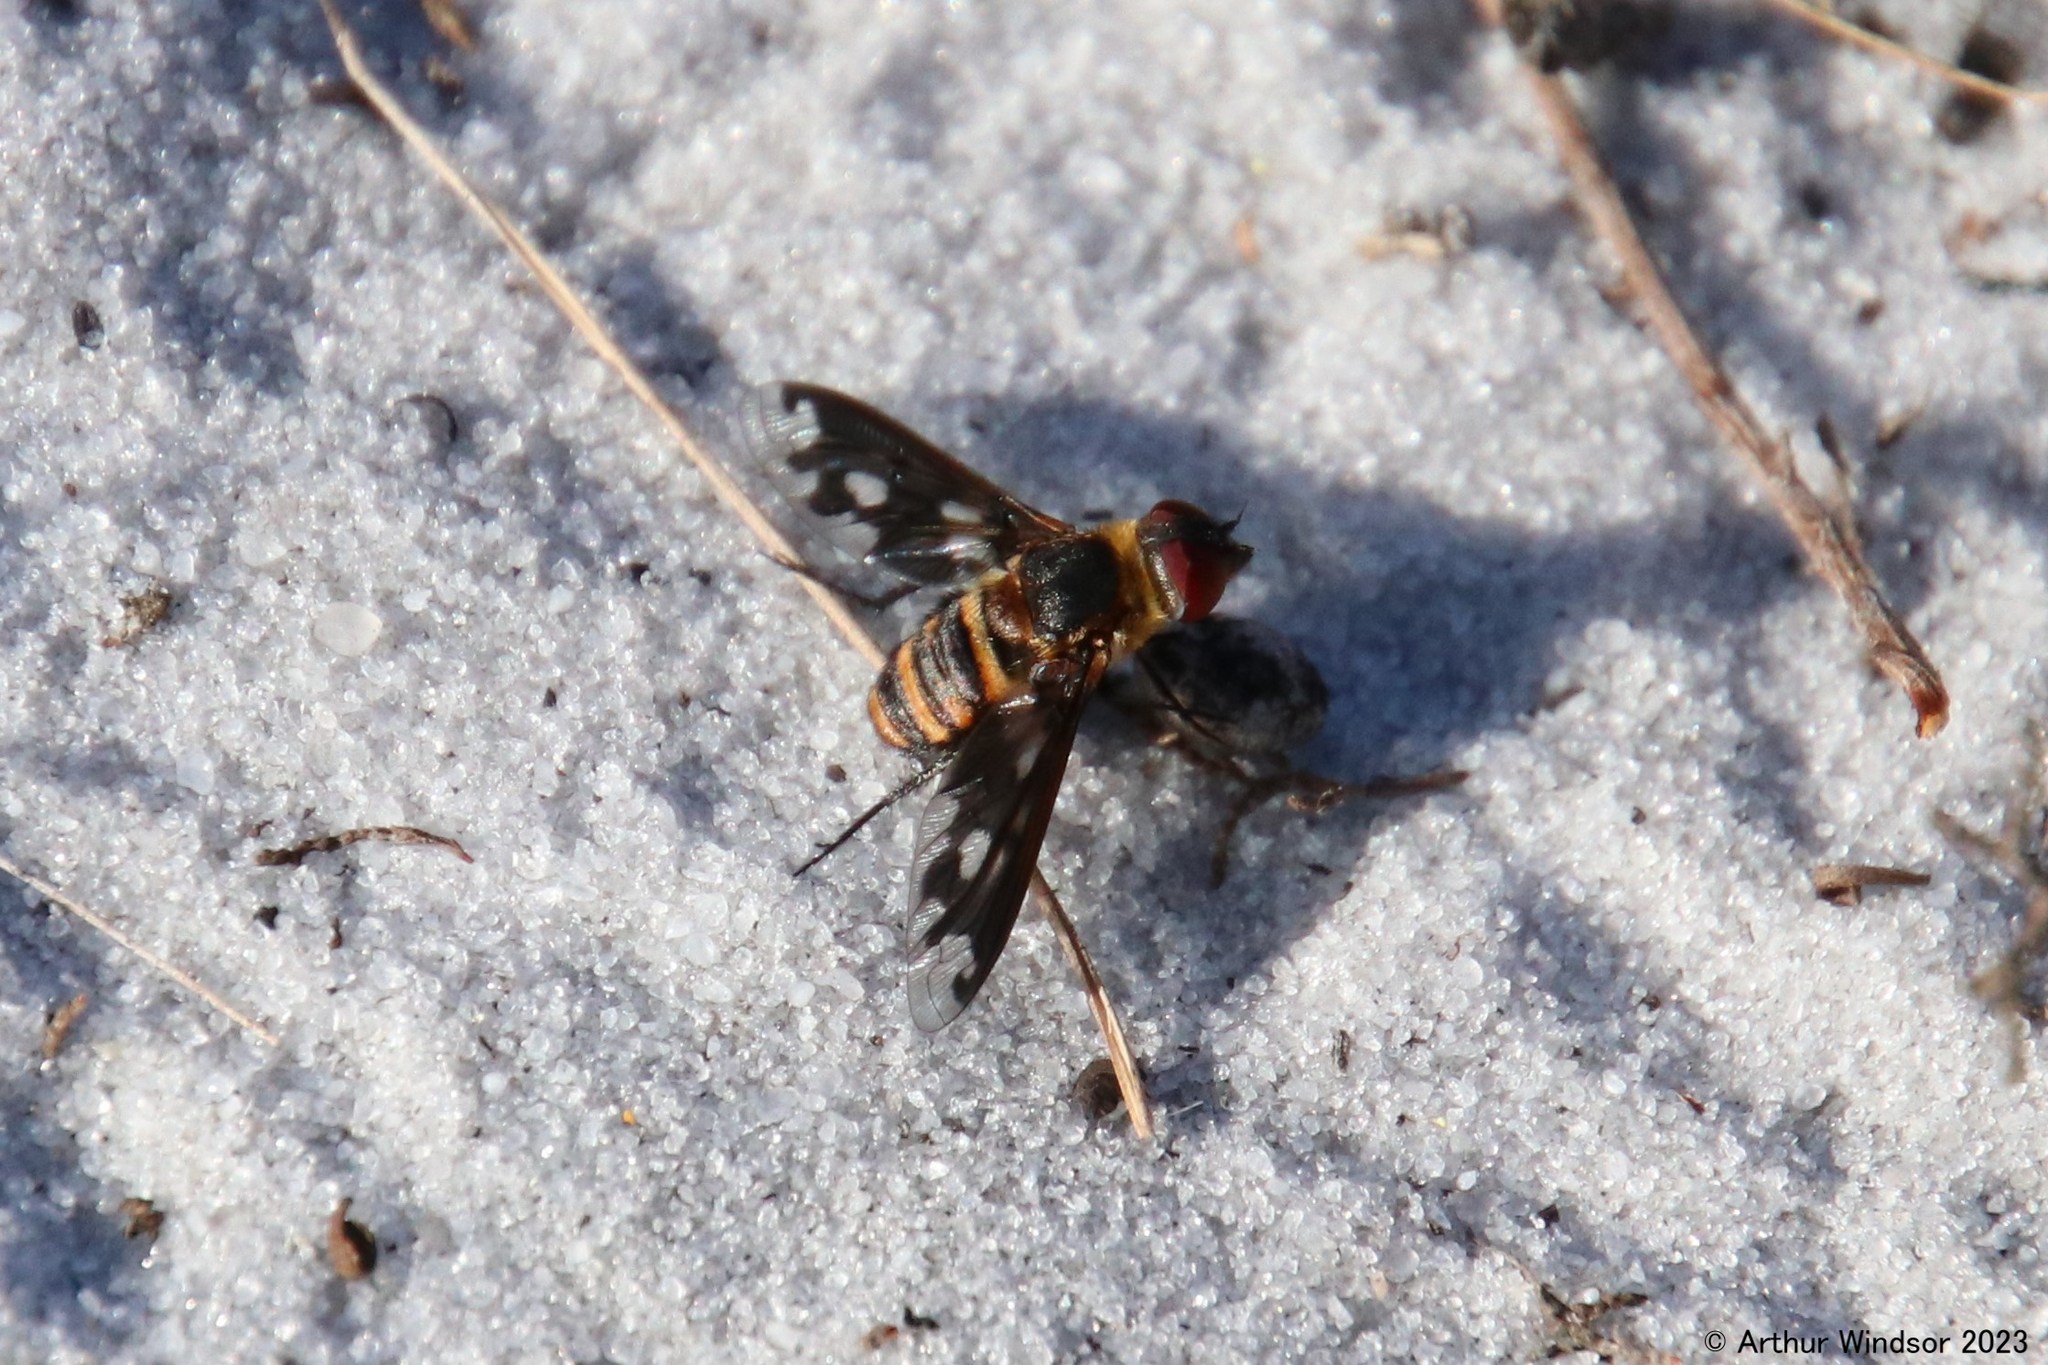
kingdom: Animalia
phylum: Arthropoda
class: Insecta
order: Diptera
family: Bombyliidae
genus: Exoprosopa
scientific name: Exoprosopa fascipennis
